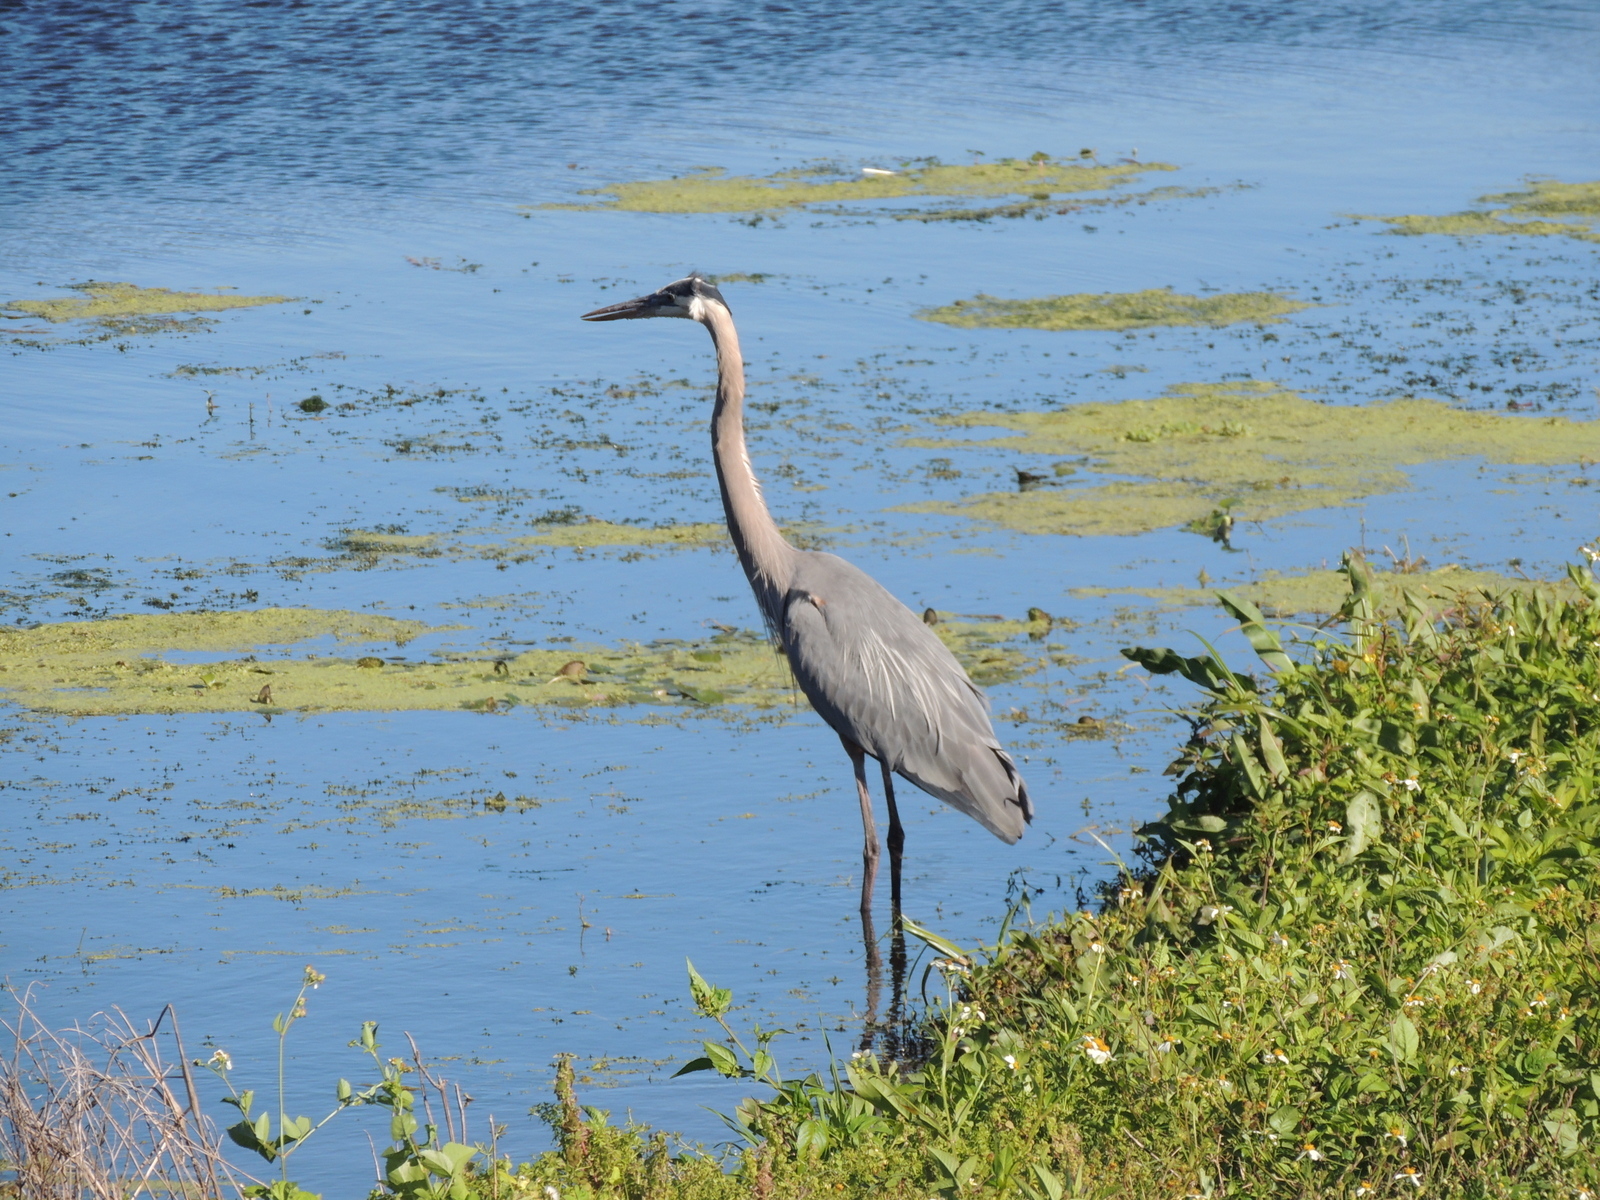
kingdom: Animalia
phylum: Chordata
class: Aves
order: Pelecaniformes
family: Ardeidae
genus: Ardea
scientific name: Ardea herodias
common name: Great blue heron
